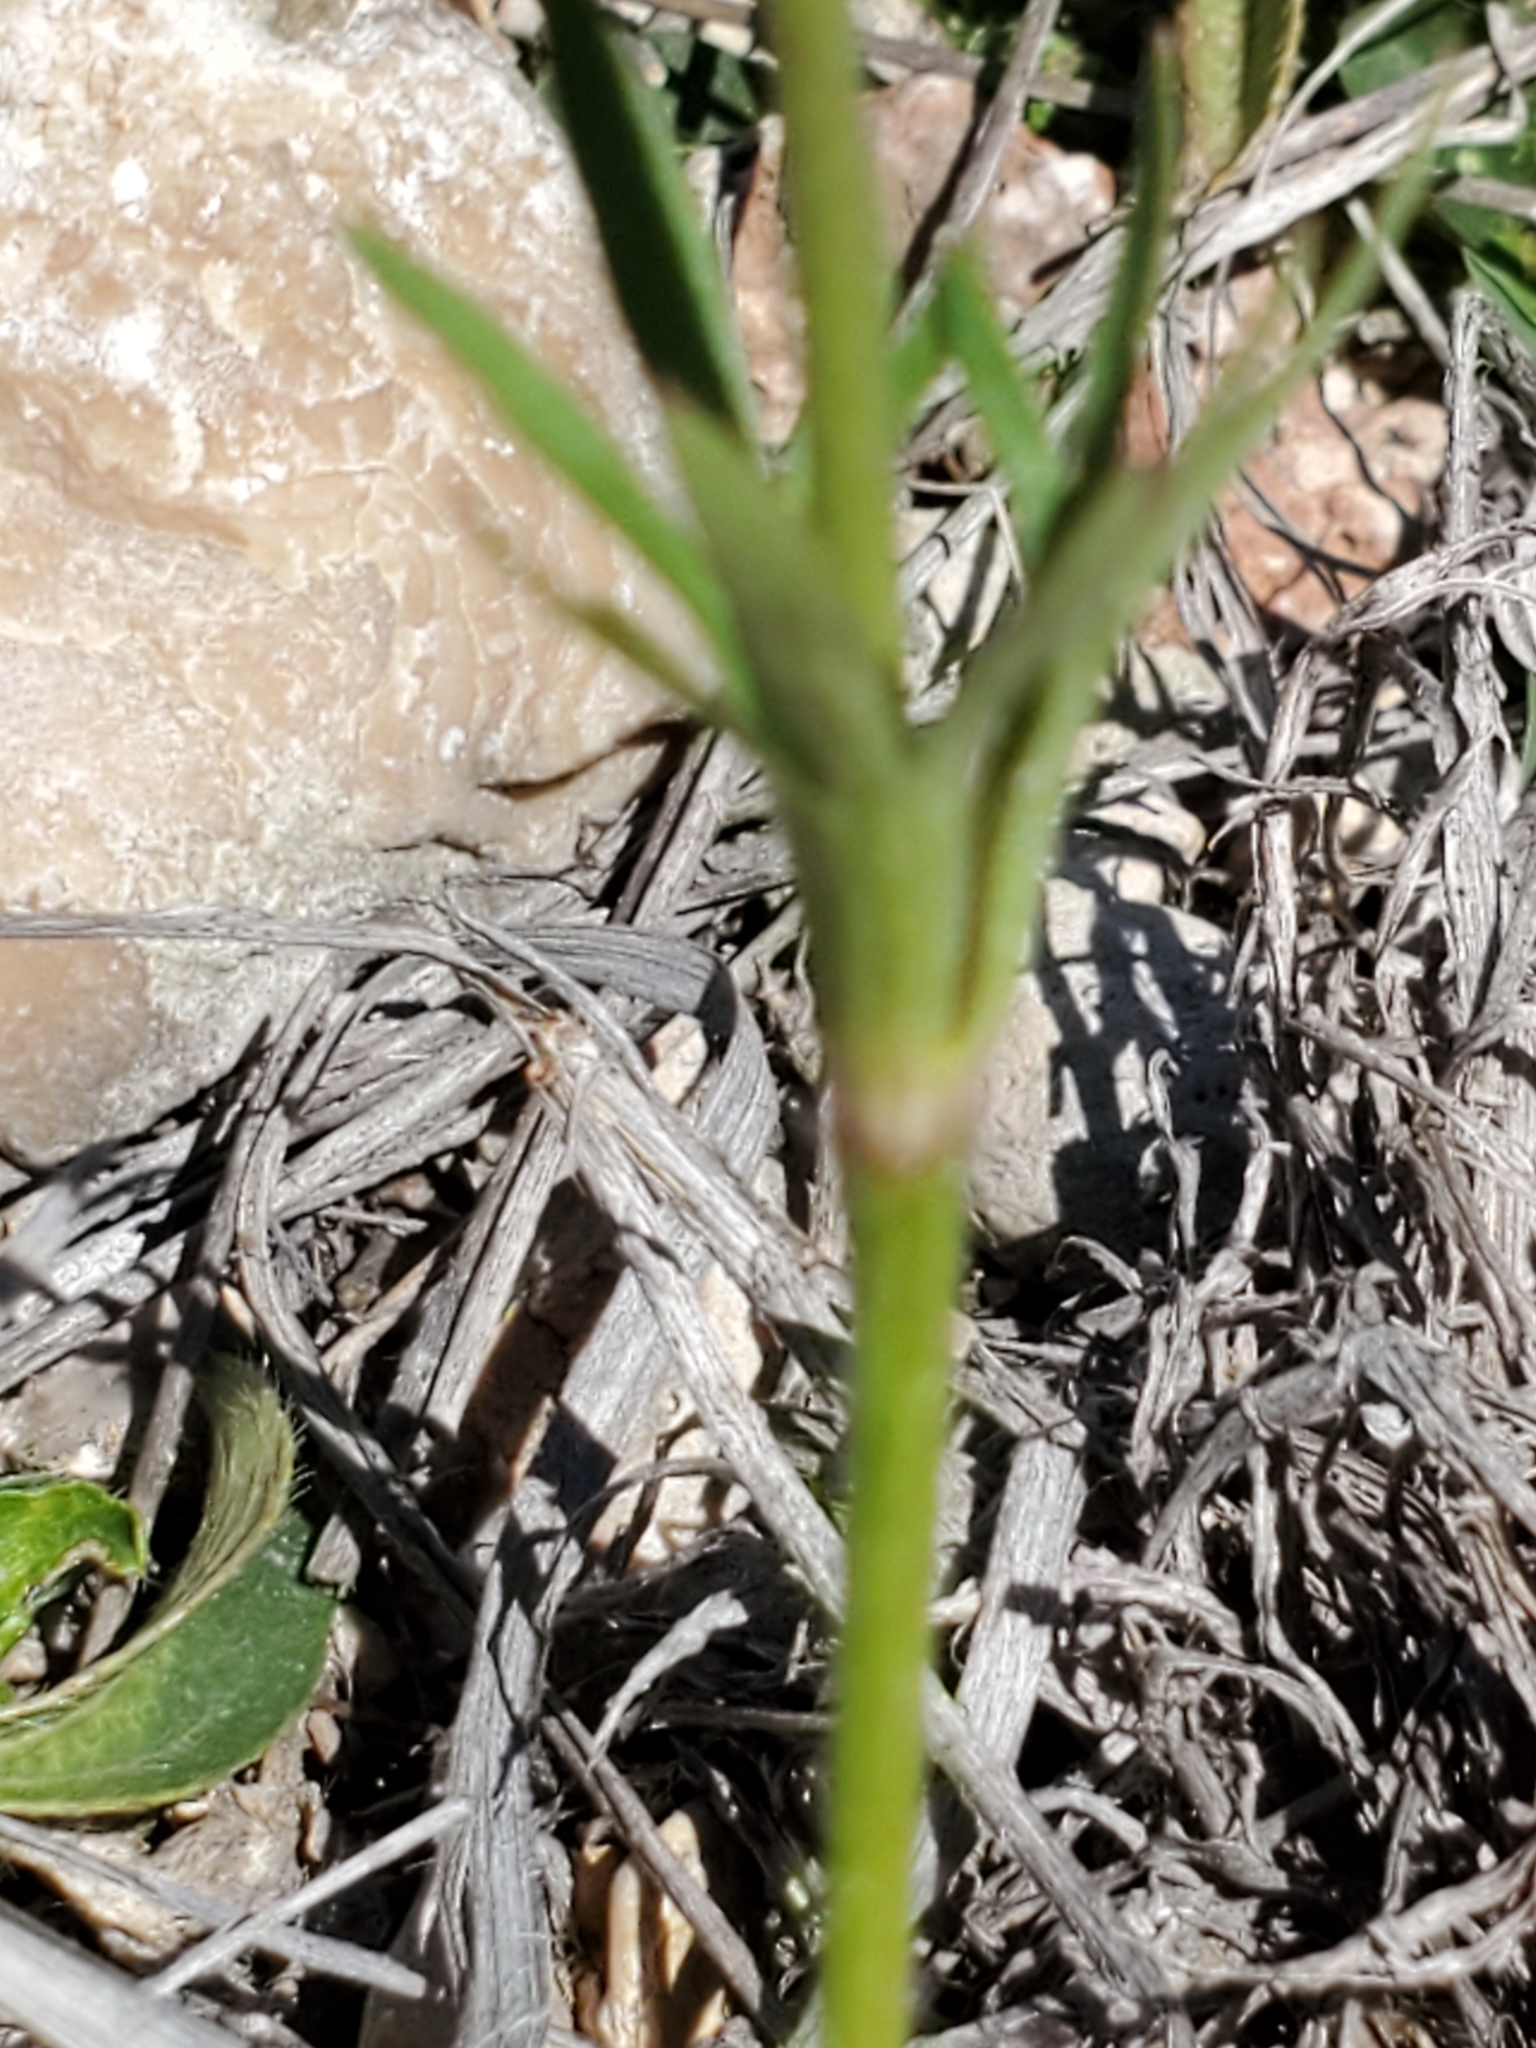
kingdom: Plantae
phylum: Tracheophyta
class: Magnoliopsida
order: Ranunculales
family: Ranunculaceae
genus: Anemone
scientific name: Anemone berlandieri
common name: Ten-petal anemone
